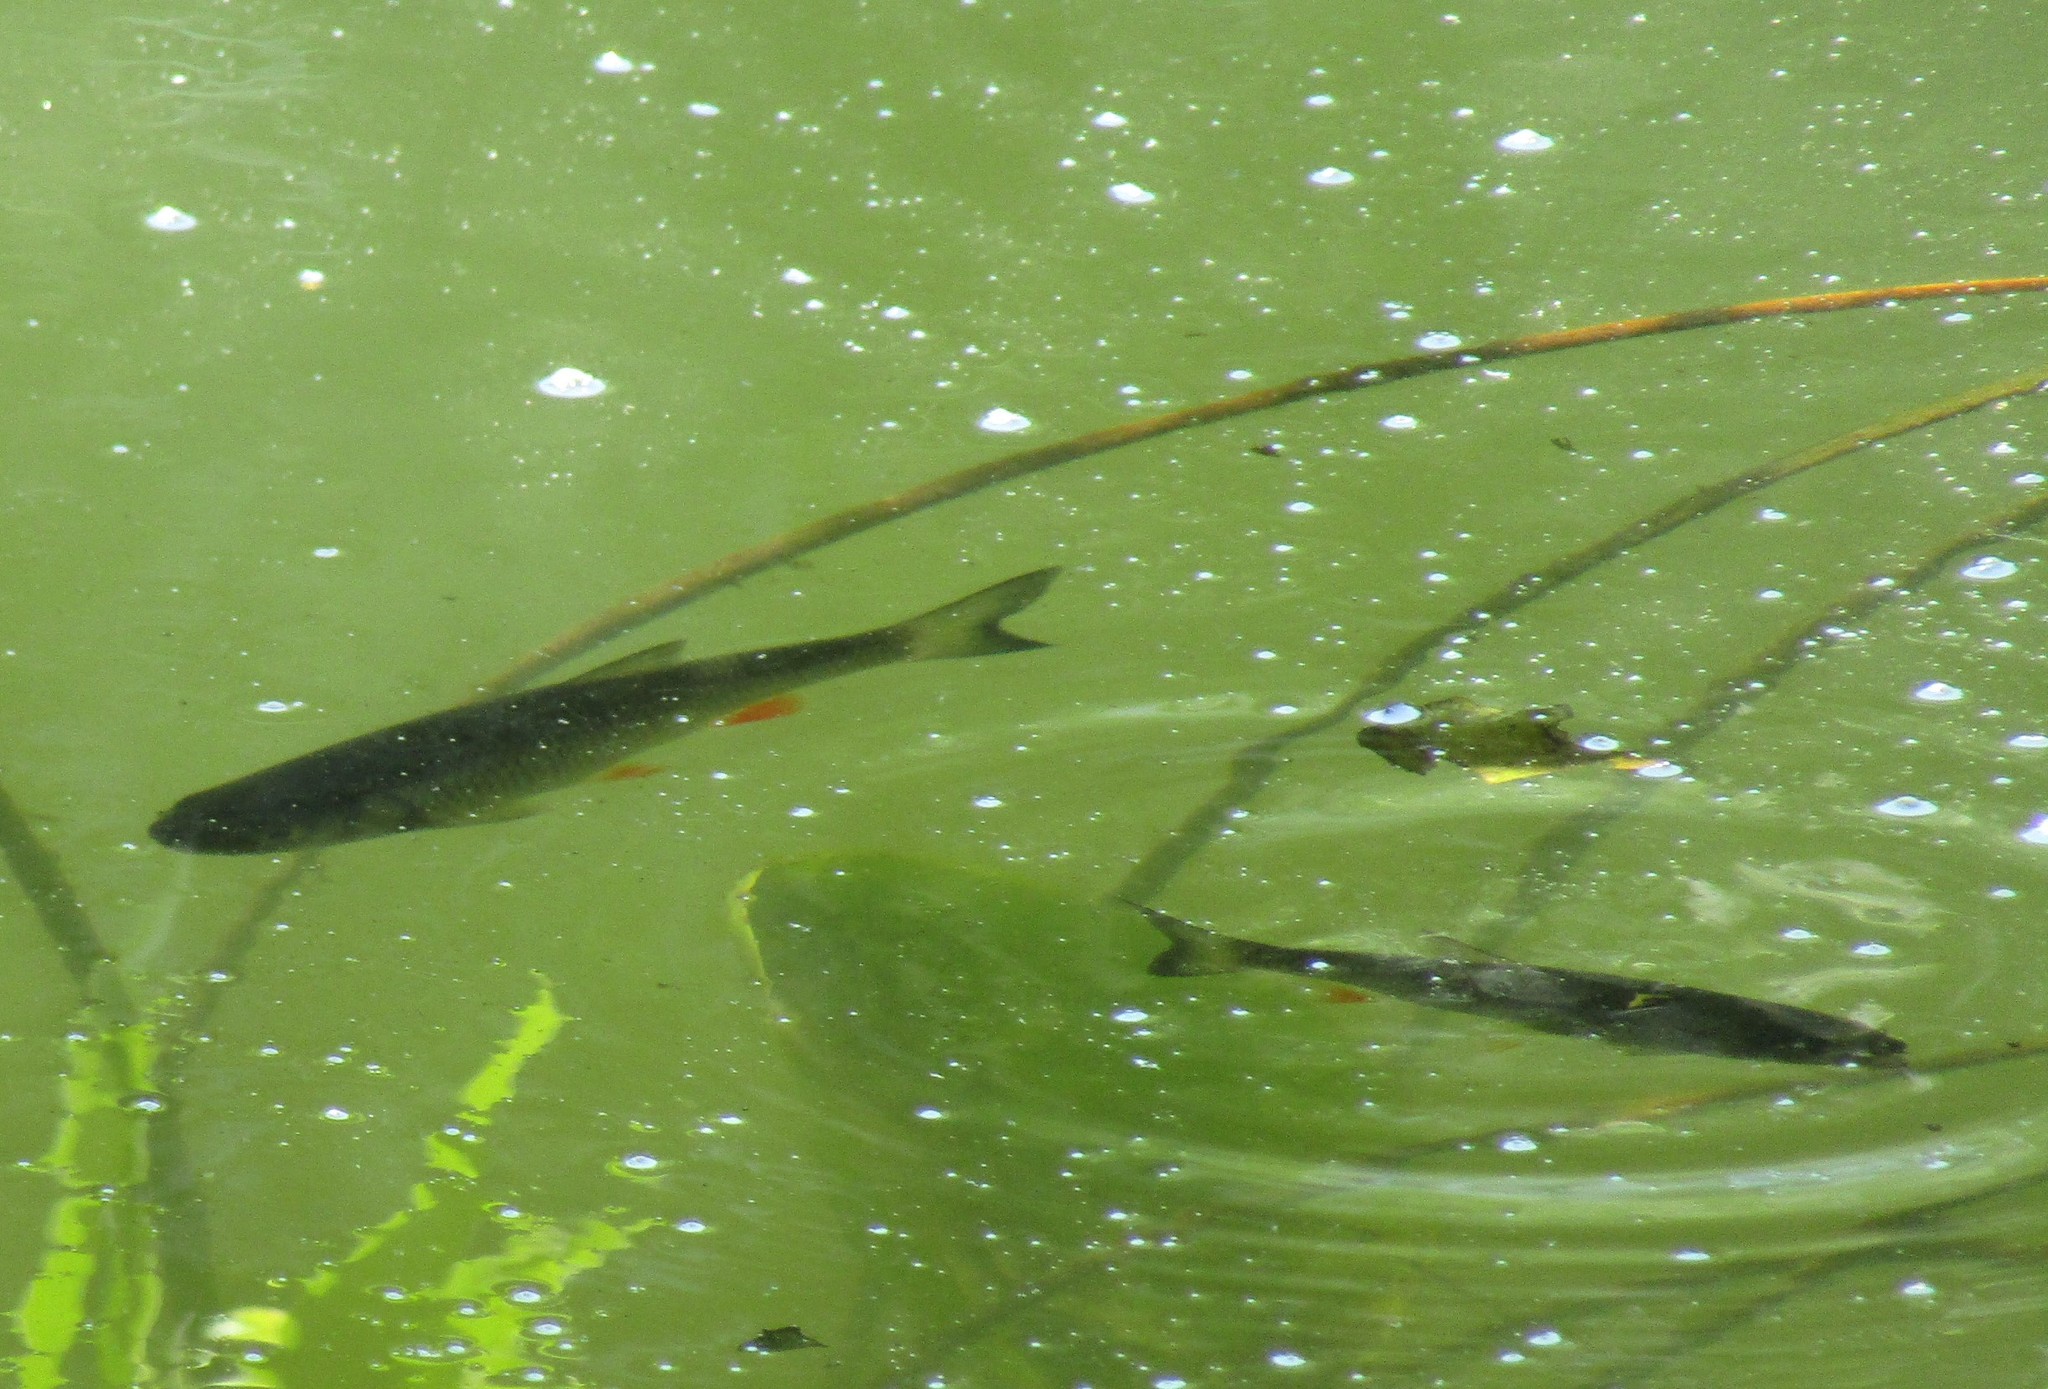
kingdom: Animalia
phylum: Chordata
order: Cypriniformes
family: Cyprinidae
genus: Squalius
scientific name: Squalius cephalus
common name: Chub
